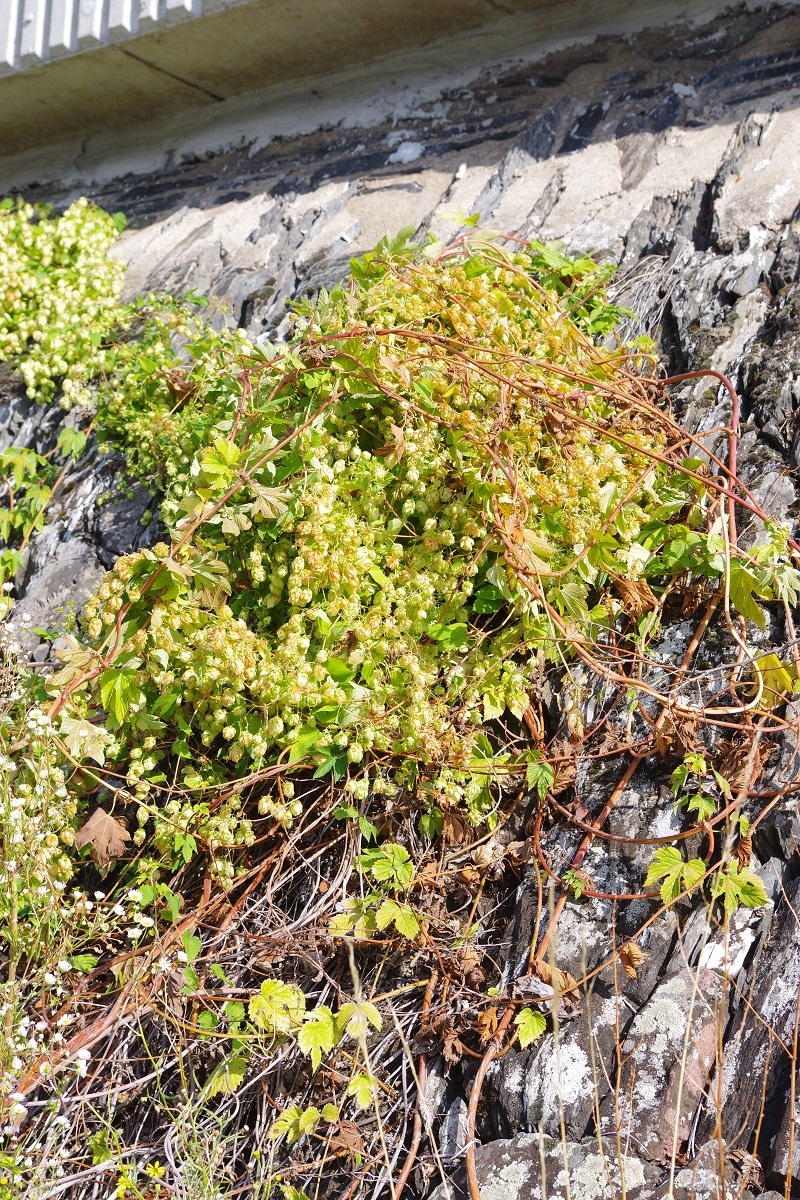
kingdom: Plantae
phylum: Tracheophyta
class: Magnoliopsida
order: Rosales
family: Cannabaceae
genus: Humulus
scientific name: Humulus lupulus
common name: Hop
